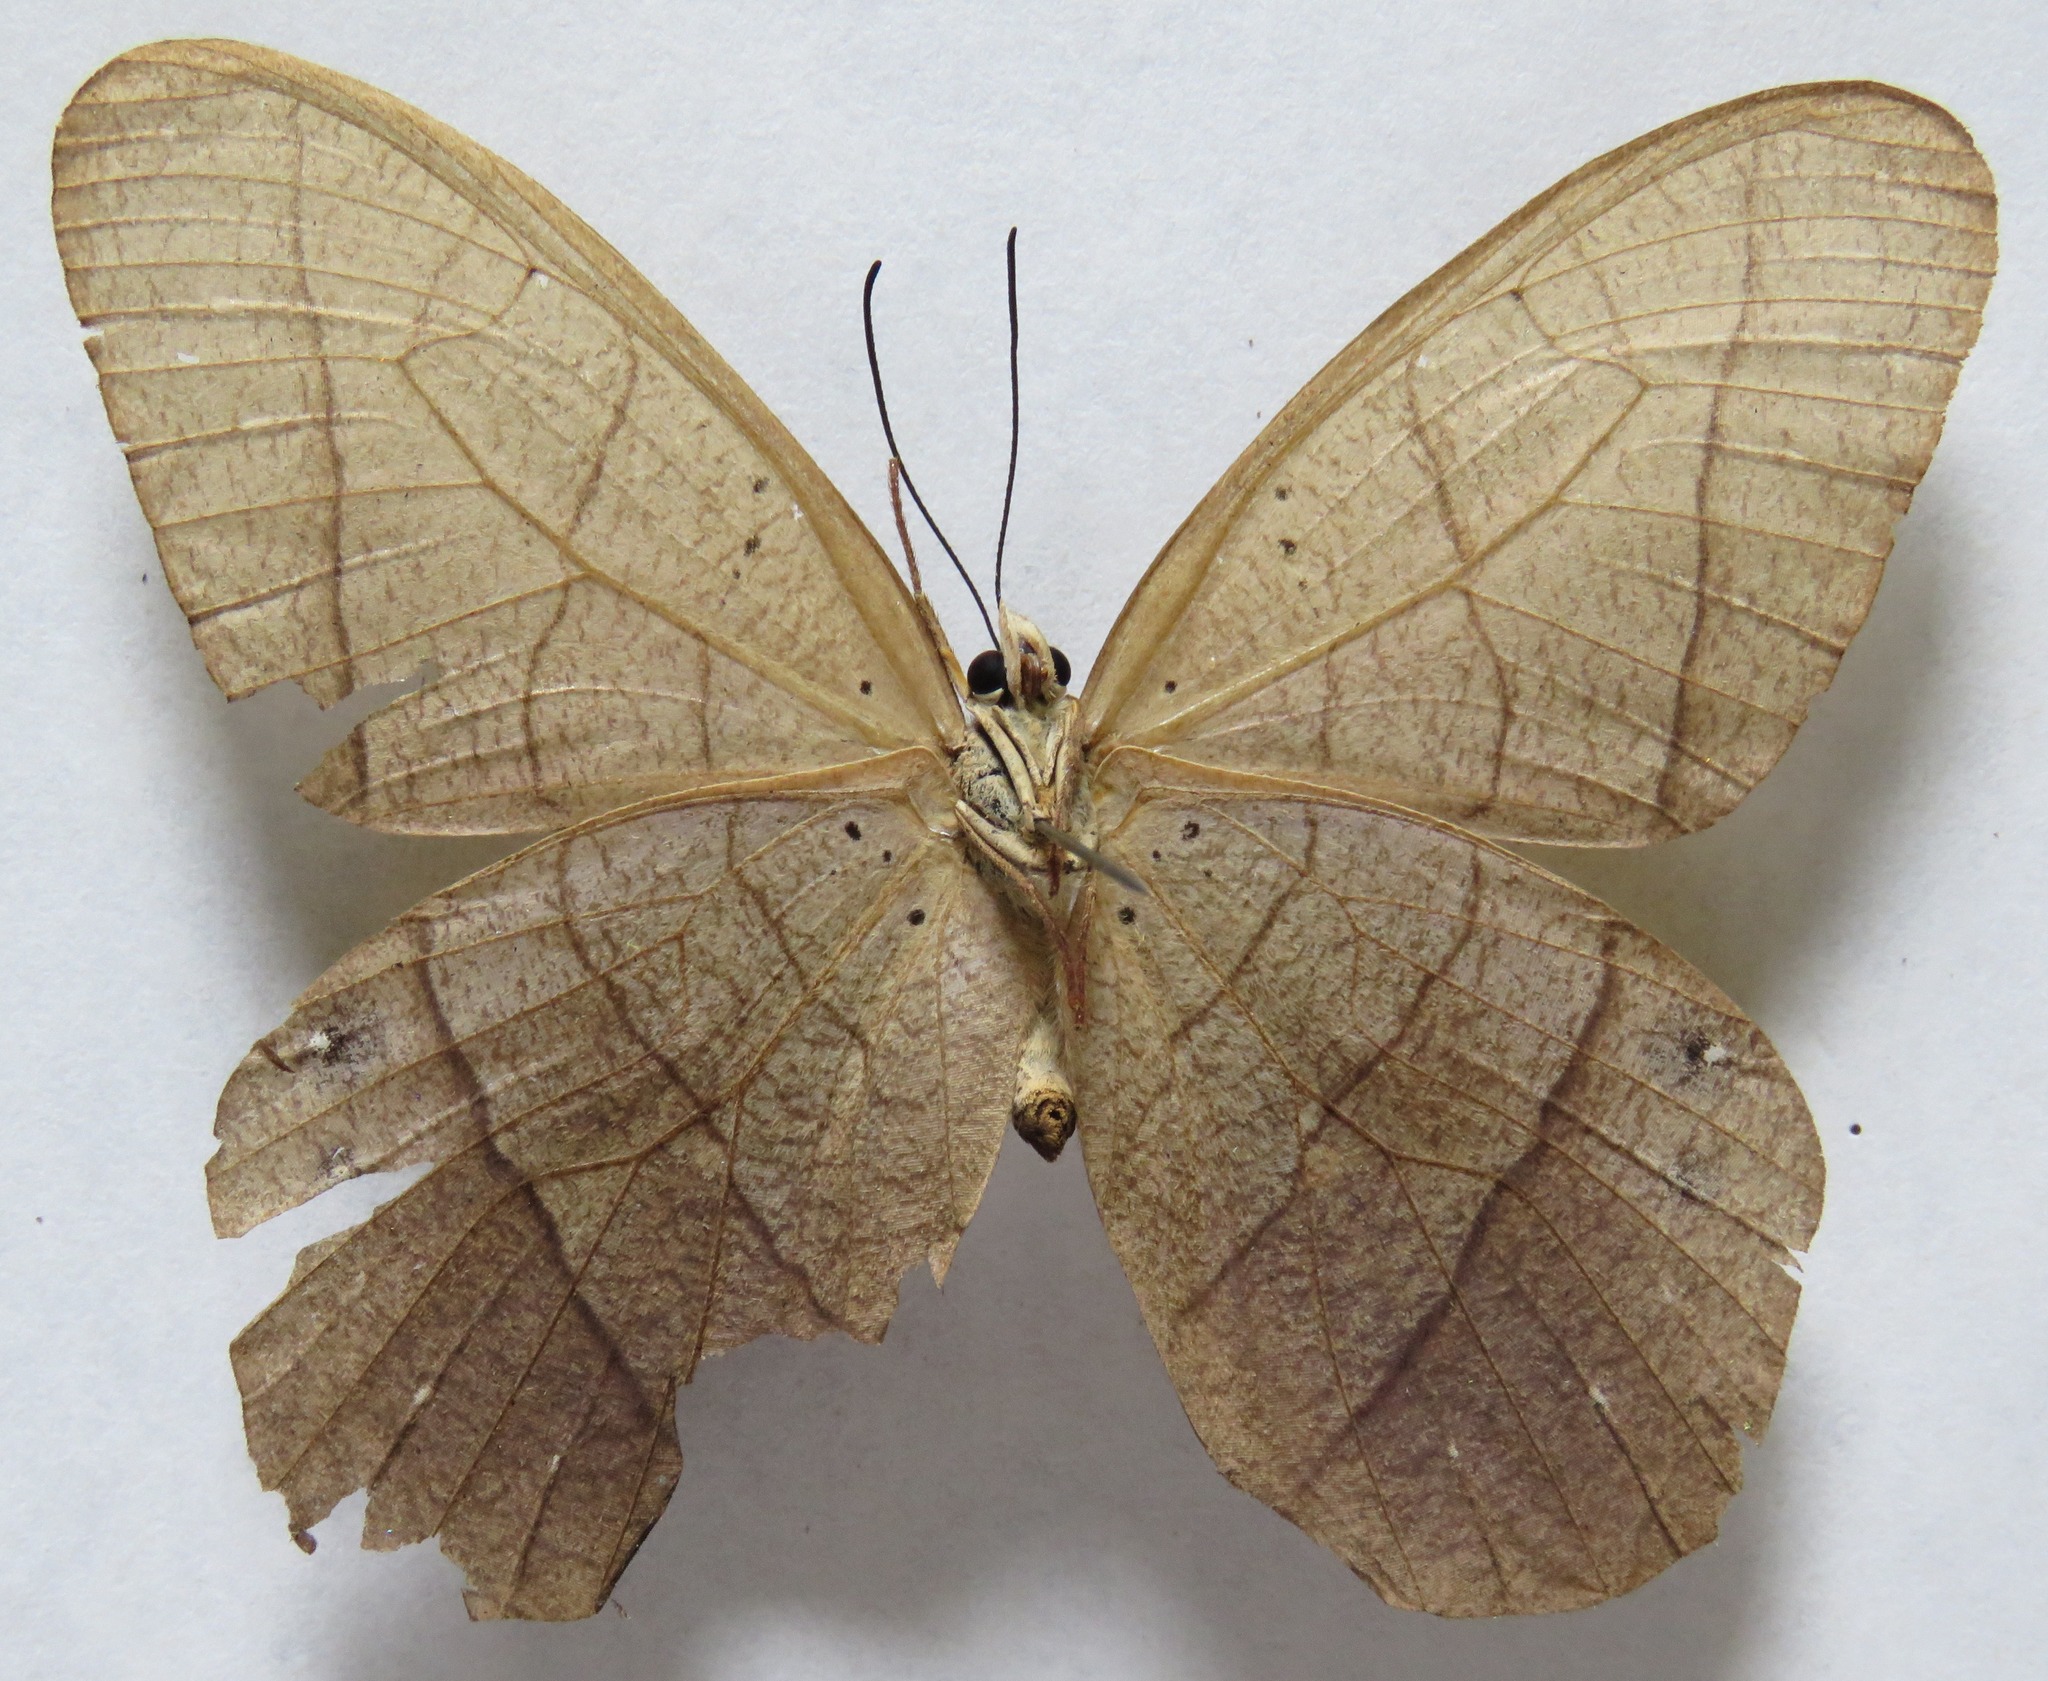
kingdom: Animalia
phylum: Arthropoda
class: Insecta
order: Lepidoptera
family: Nymphalidae
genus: Pierella
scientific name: Pierella luna
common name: Moon satyr
